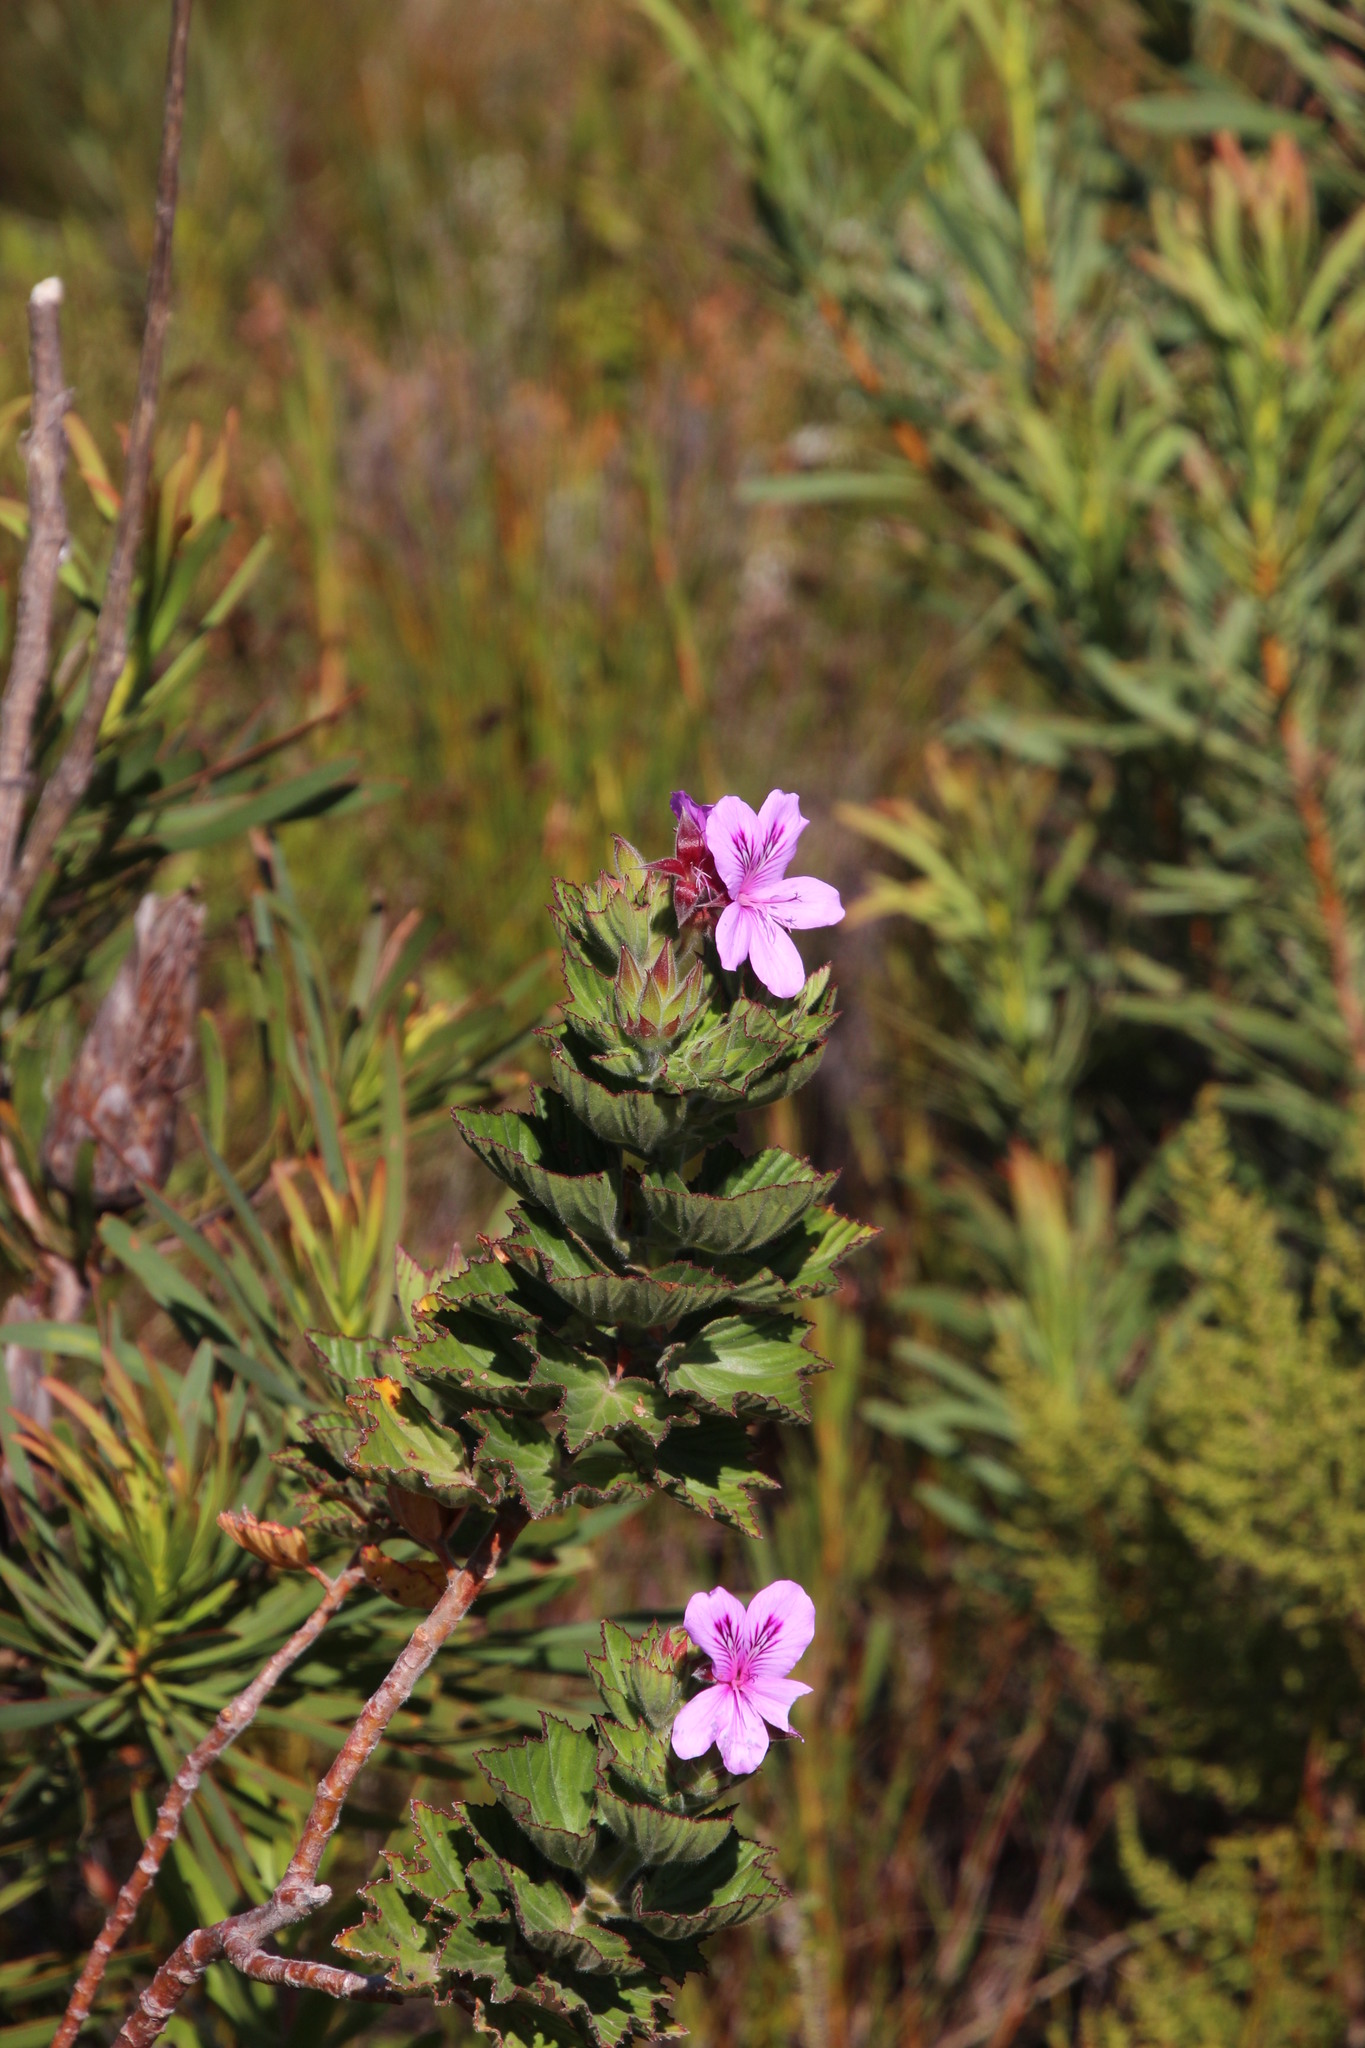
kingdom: Plantae
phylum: Tracheophyta
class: Magnoliopsida
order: Geraniales
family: Geraniaceae
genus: Pelargonium
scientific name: Pelargonium cucullatum
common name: Tree pelargonium
